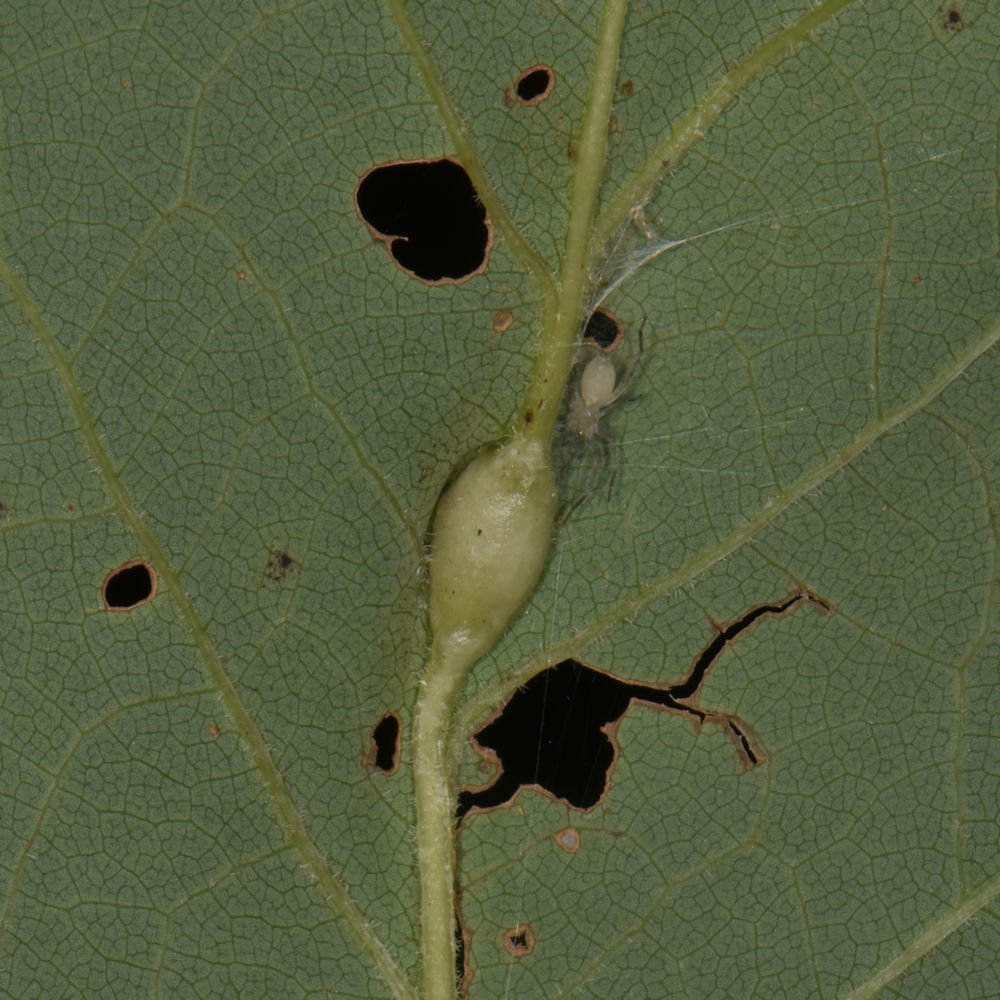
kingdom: Animalia
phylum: Arthropoda
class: Insecta
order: Diptera
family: Cecidomyiidae
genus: Resseliella
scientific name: Resseliella tulipiferae
